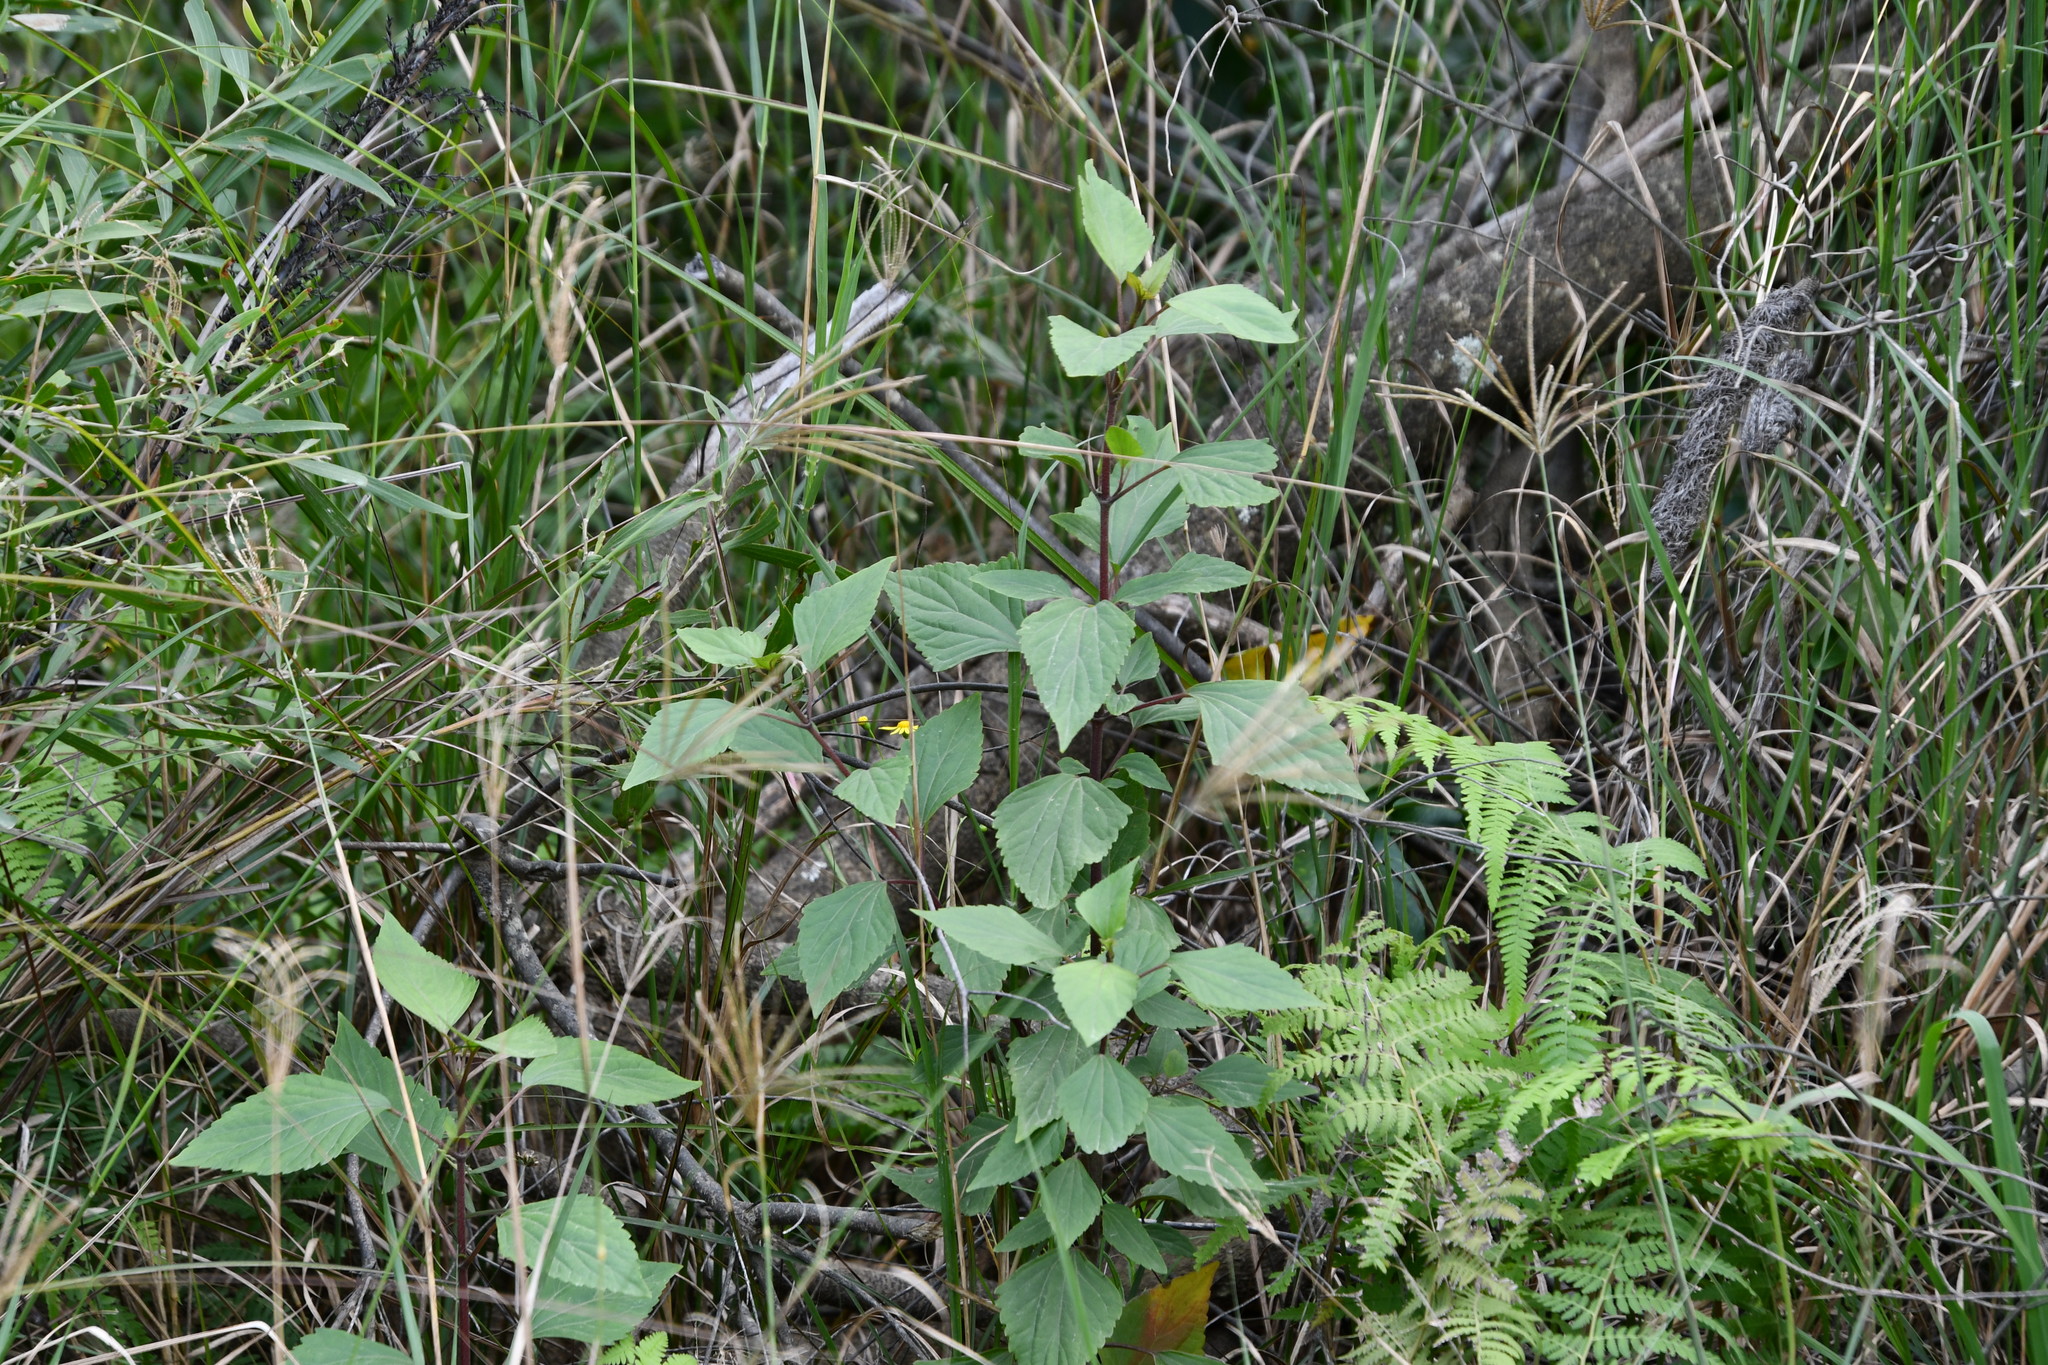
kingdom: Plantae
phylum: Tracheophyta
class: Magnoliopsida
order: Asterales
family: Asteraceae
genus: Ageratina
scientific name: Ageratina adenophora
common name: Sticky snakeroot
